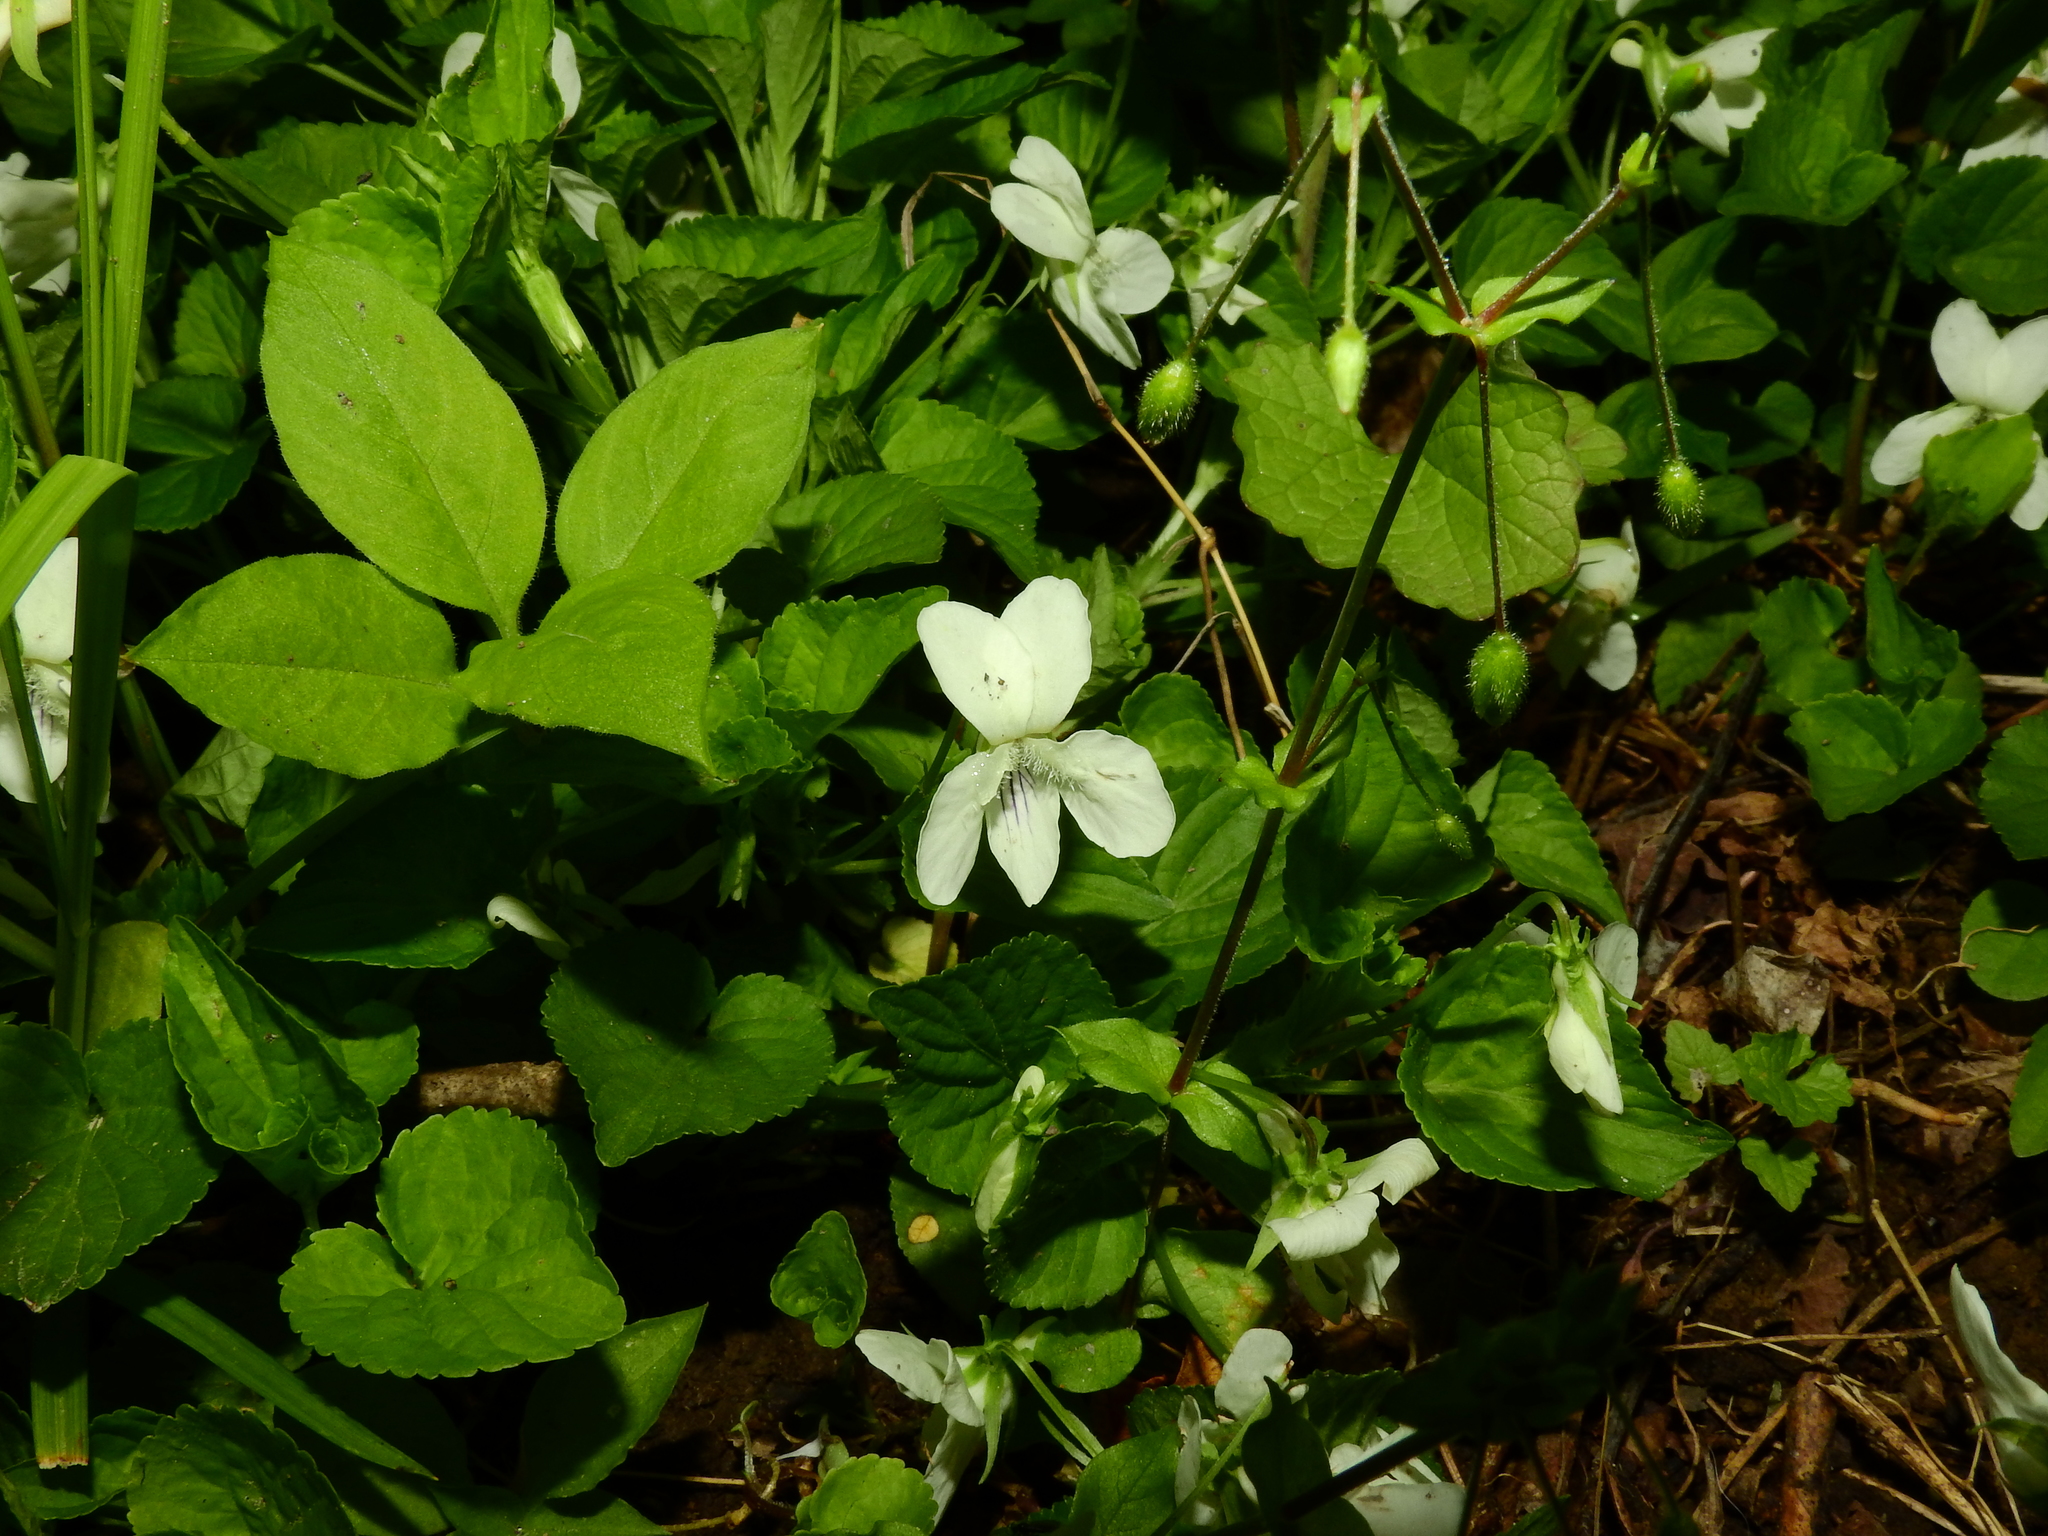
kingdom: Plantae
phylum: Tracheophyta
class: Magnoliopsida
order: Malpighiales
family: Violaceae
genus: Viola
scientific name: Viola striata
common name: Cream violet
